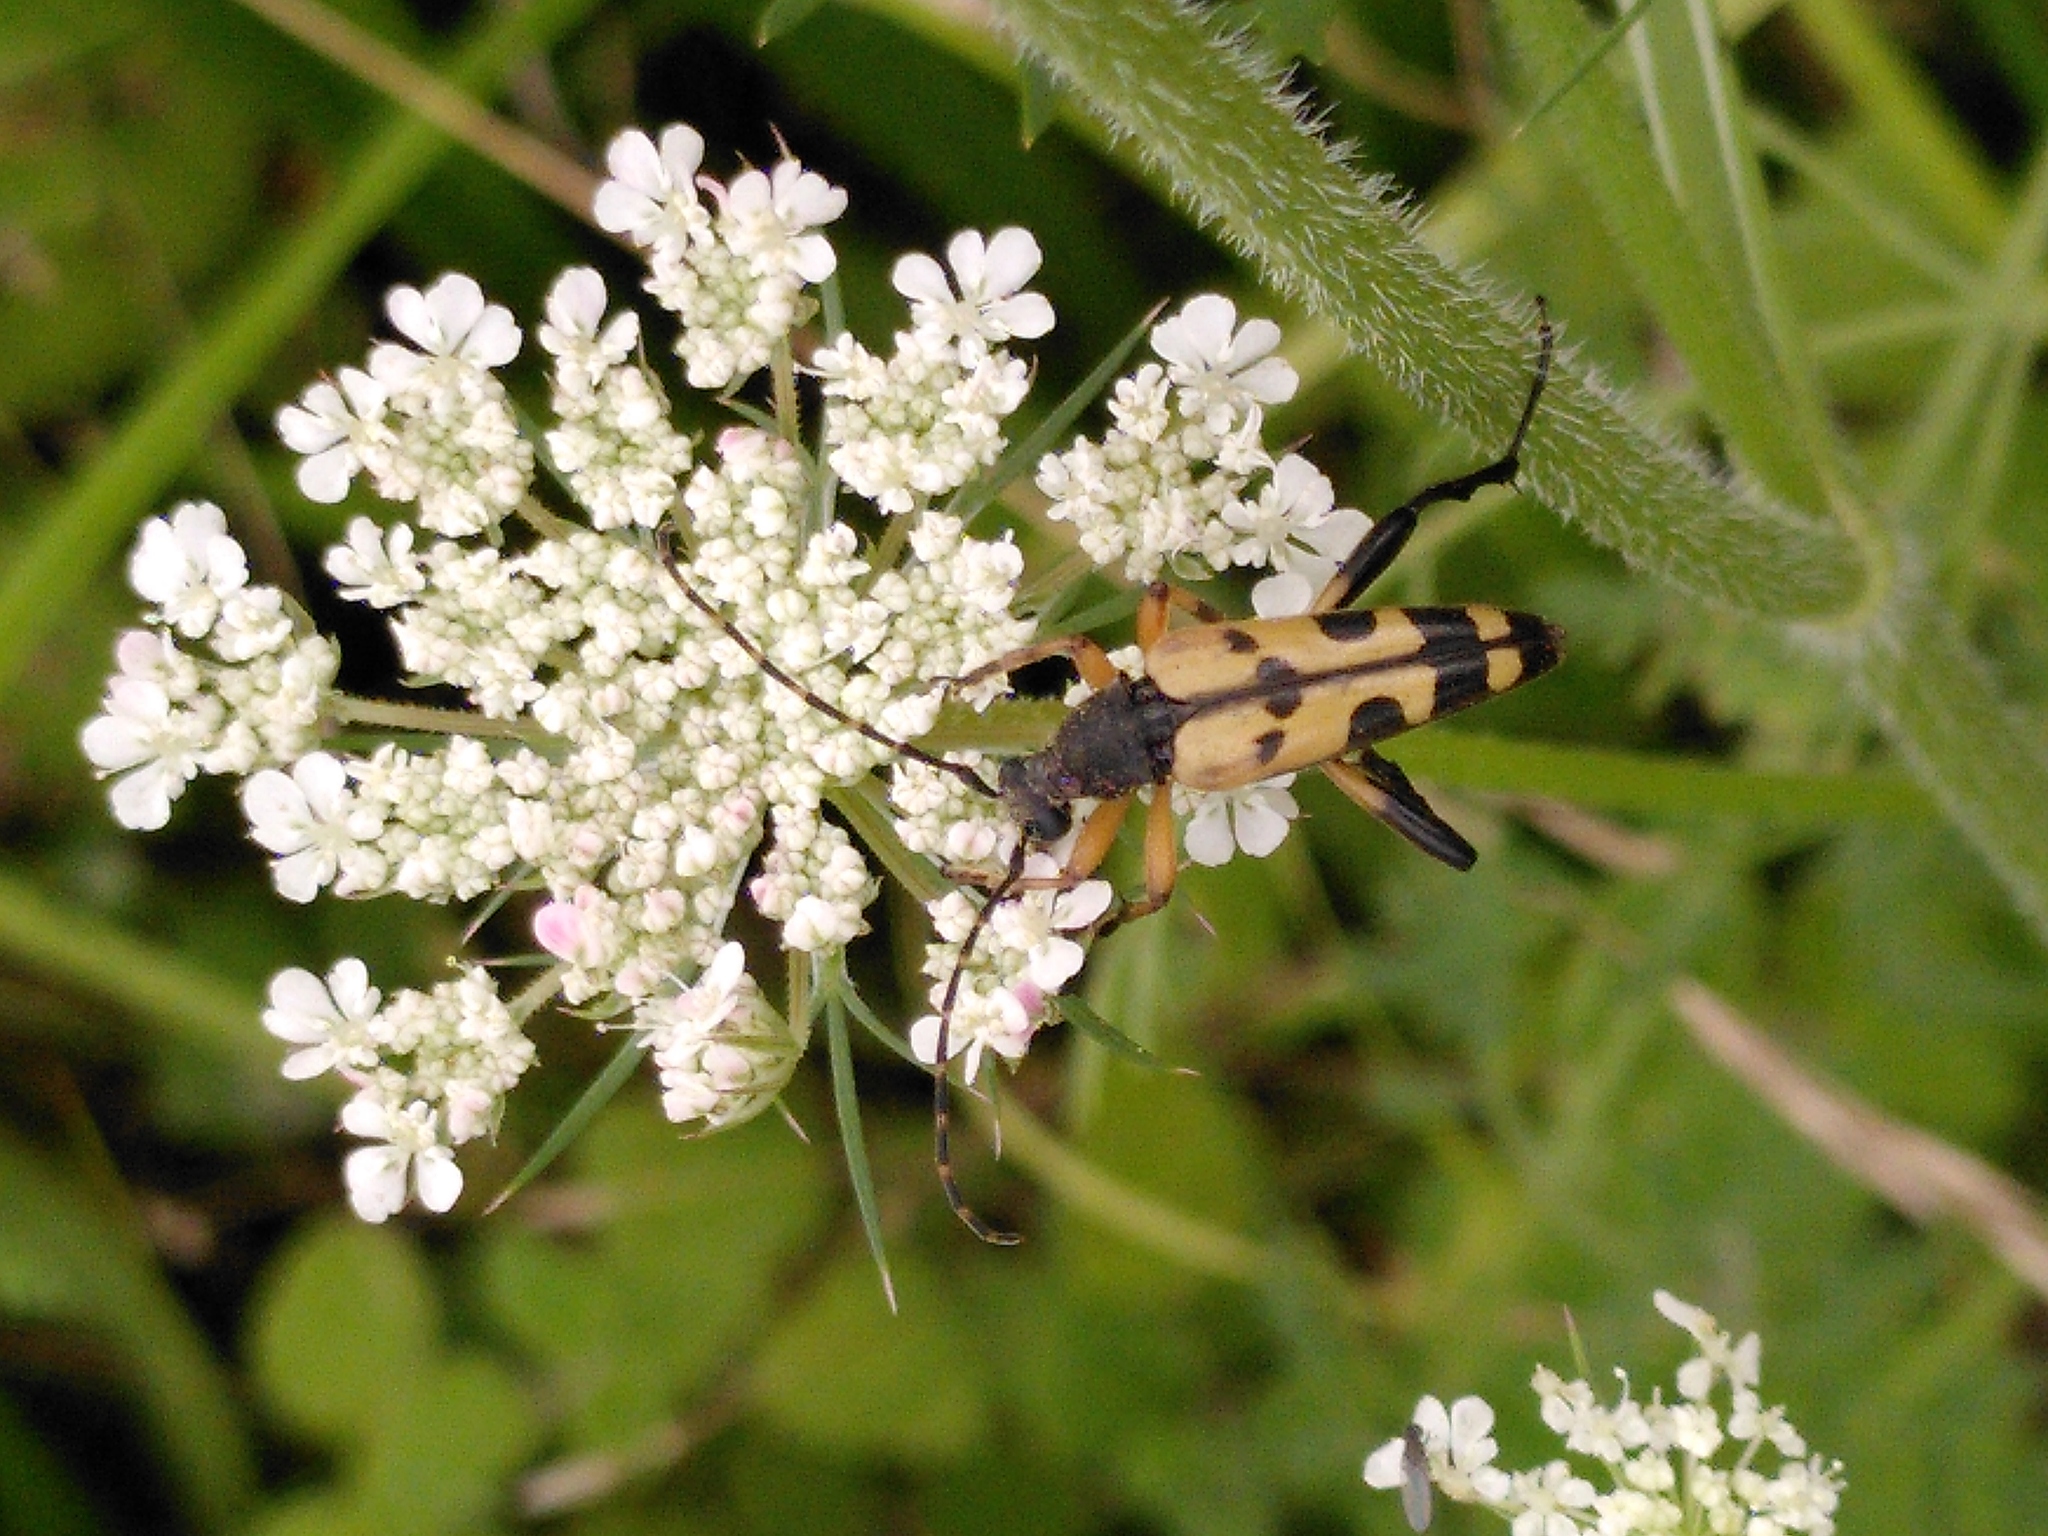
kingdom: Animalia
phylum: Arthropoda
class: Insecta
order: Coleoptera
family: Cerambycidae
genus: Rutpela
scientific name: Rutpela maculata
